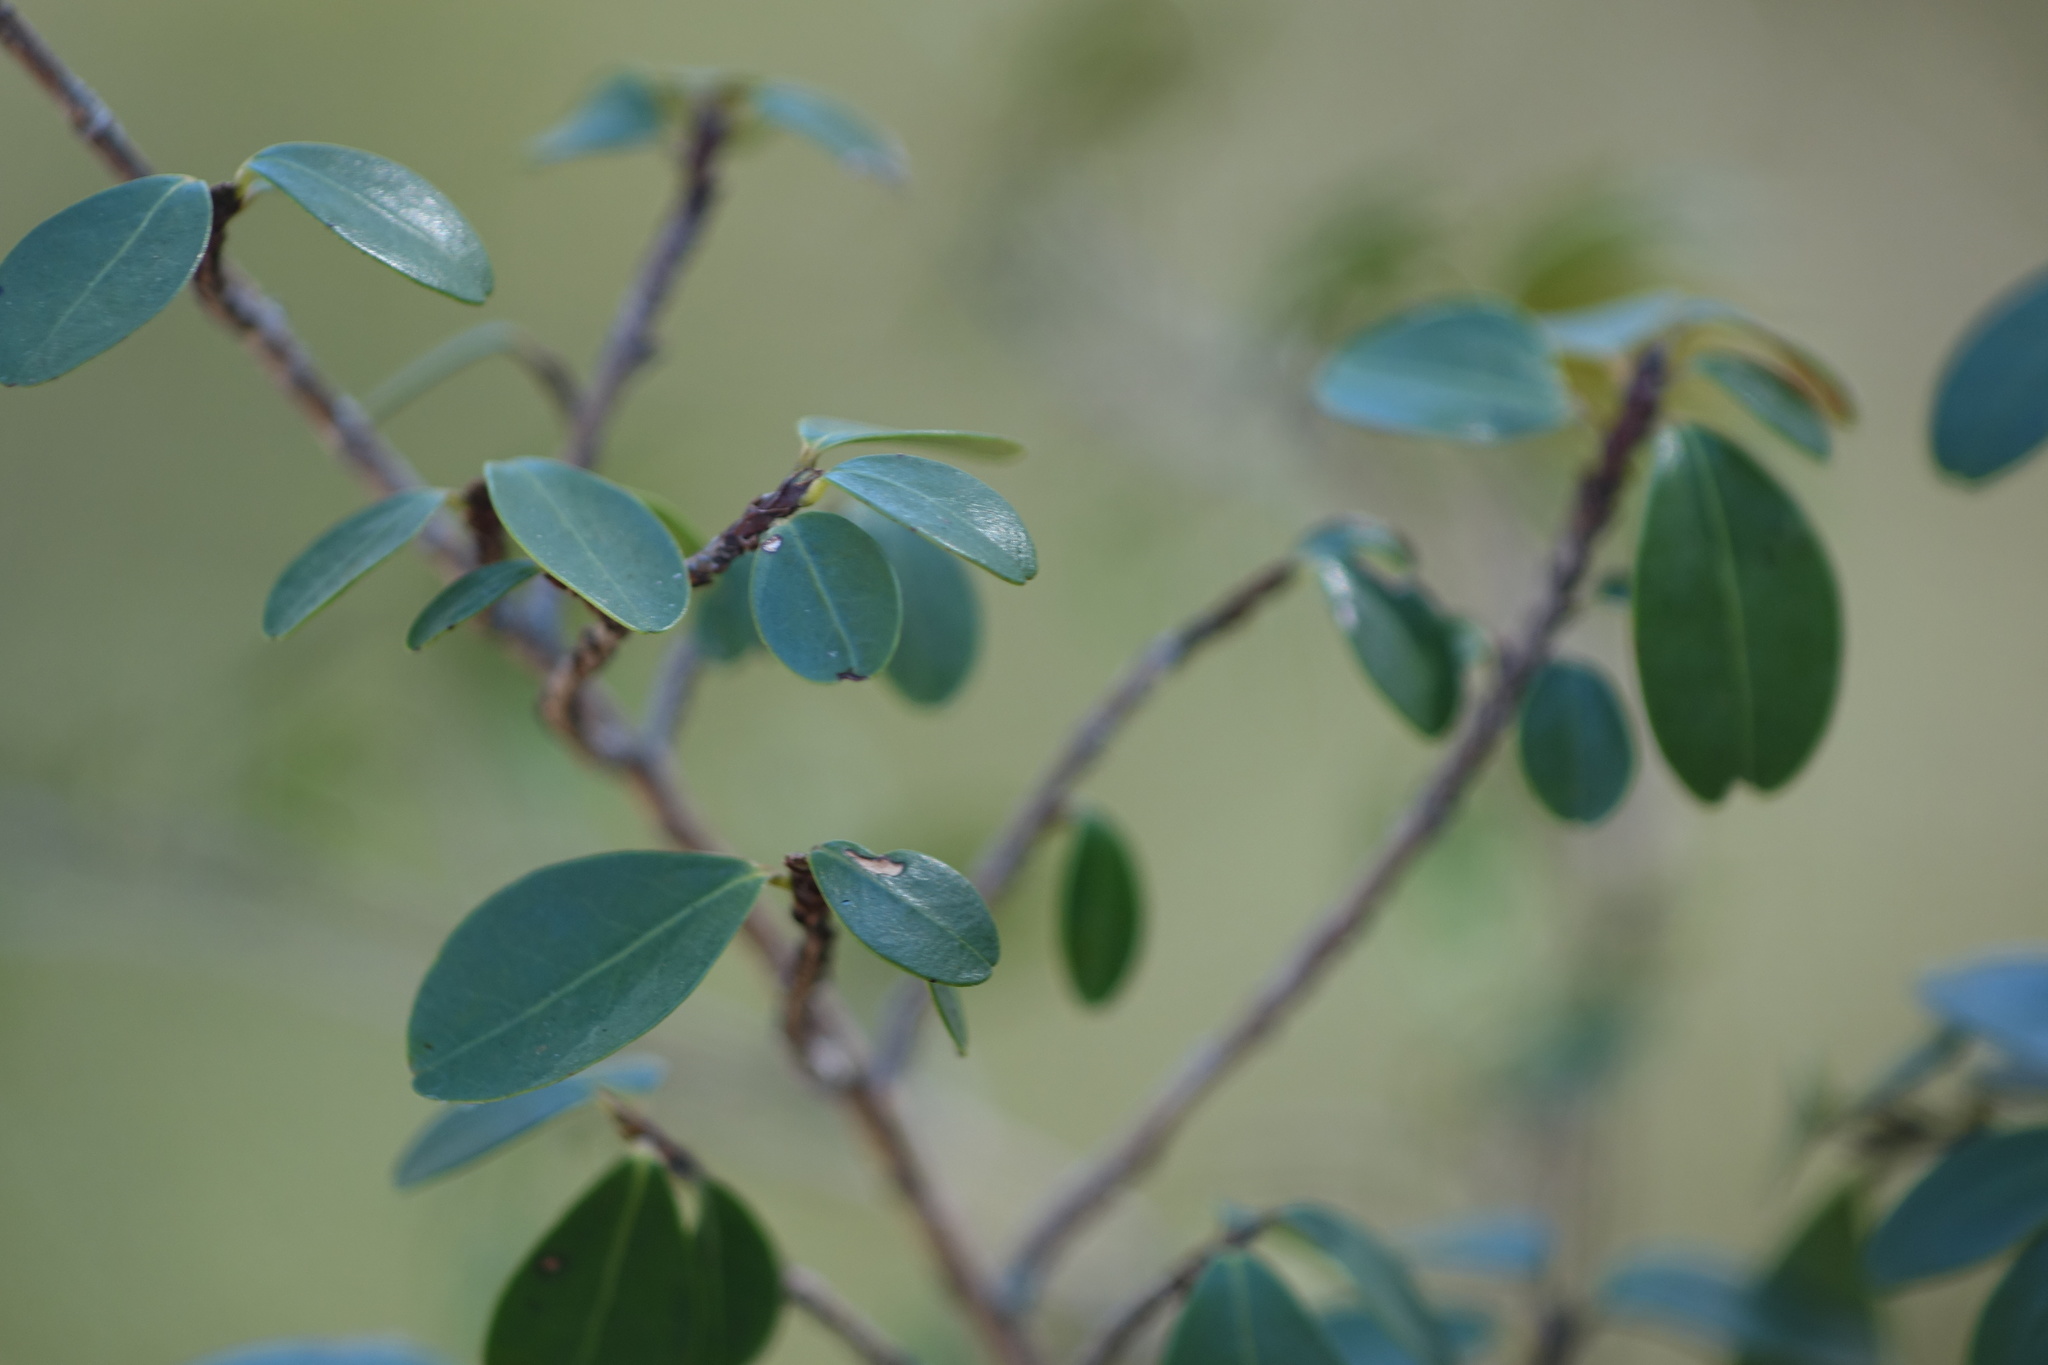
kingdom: Plantae
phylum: Tracheophyta
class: Magnoliopsida
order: Malpighiales
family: Erythroxylaceae
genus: Erythroxylum
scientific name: Erythroxylum pervillei
